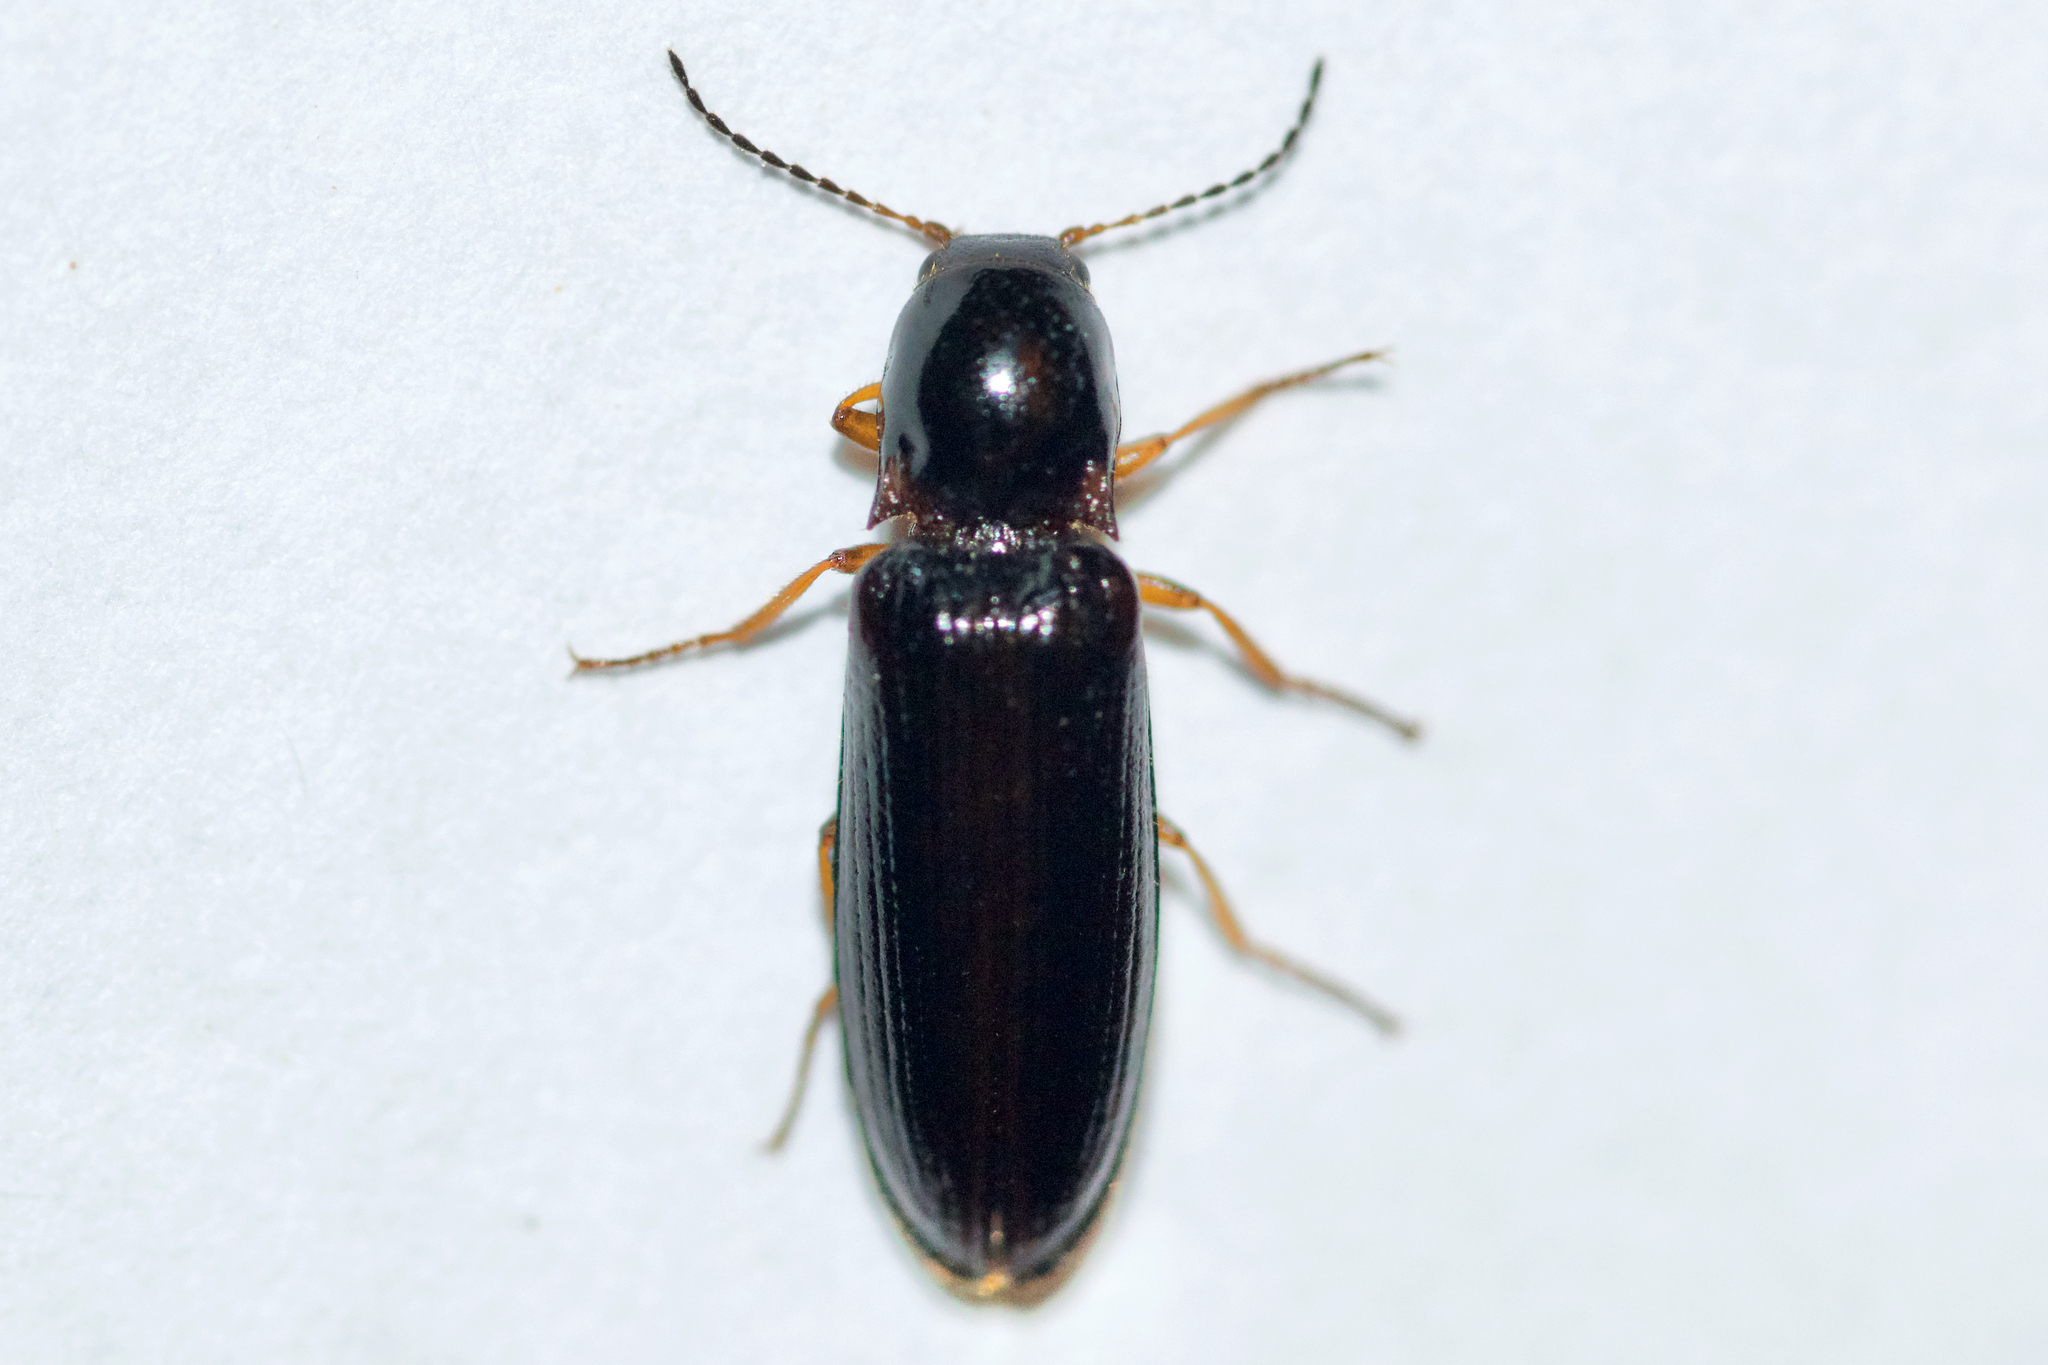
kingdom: Animalia
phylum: Arthropoda
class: Insecta
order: Coleoptera
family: Elateridae
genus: Oestodes
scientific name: Oestodes tenuicollis
